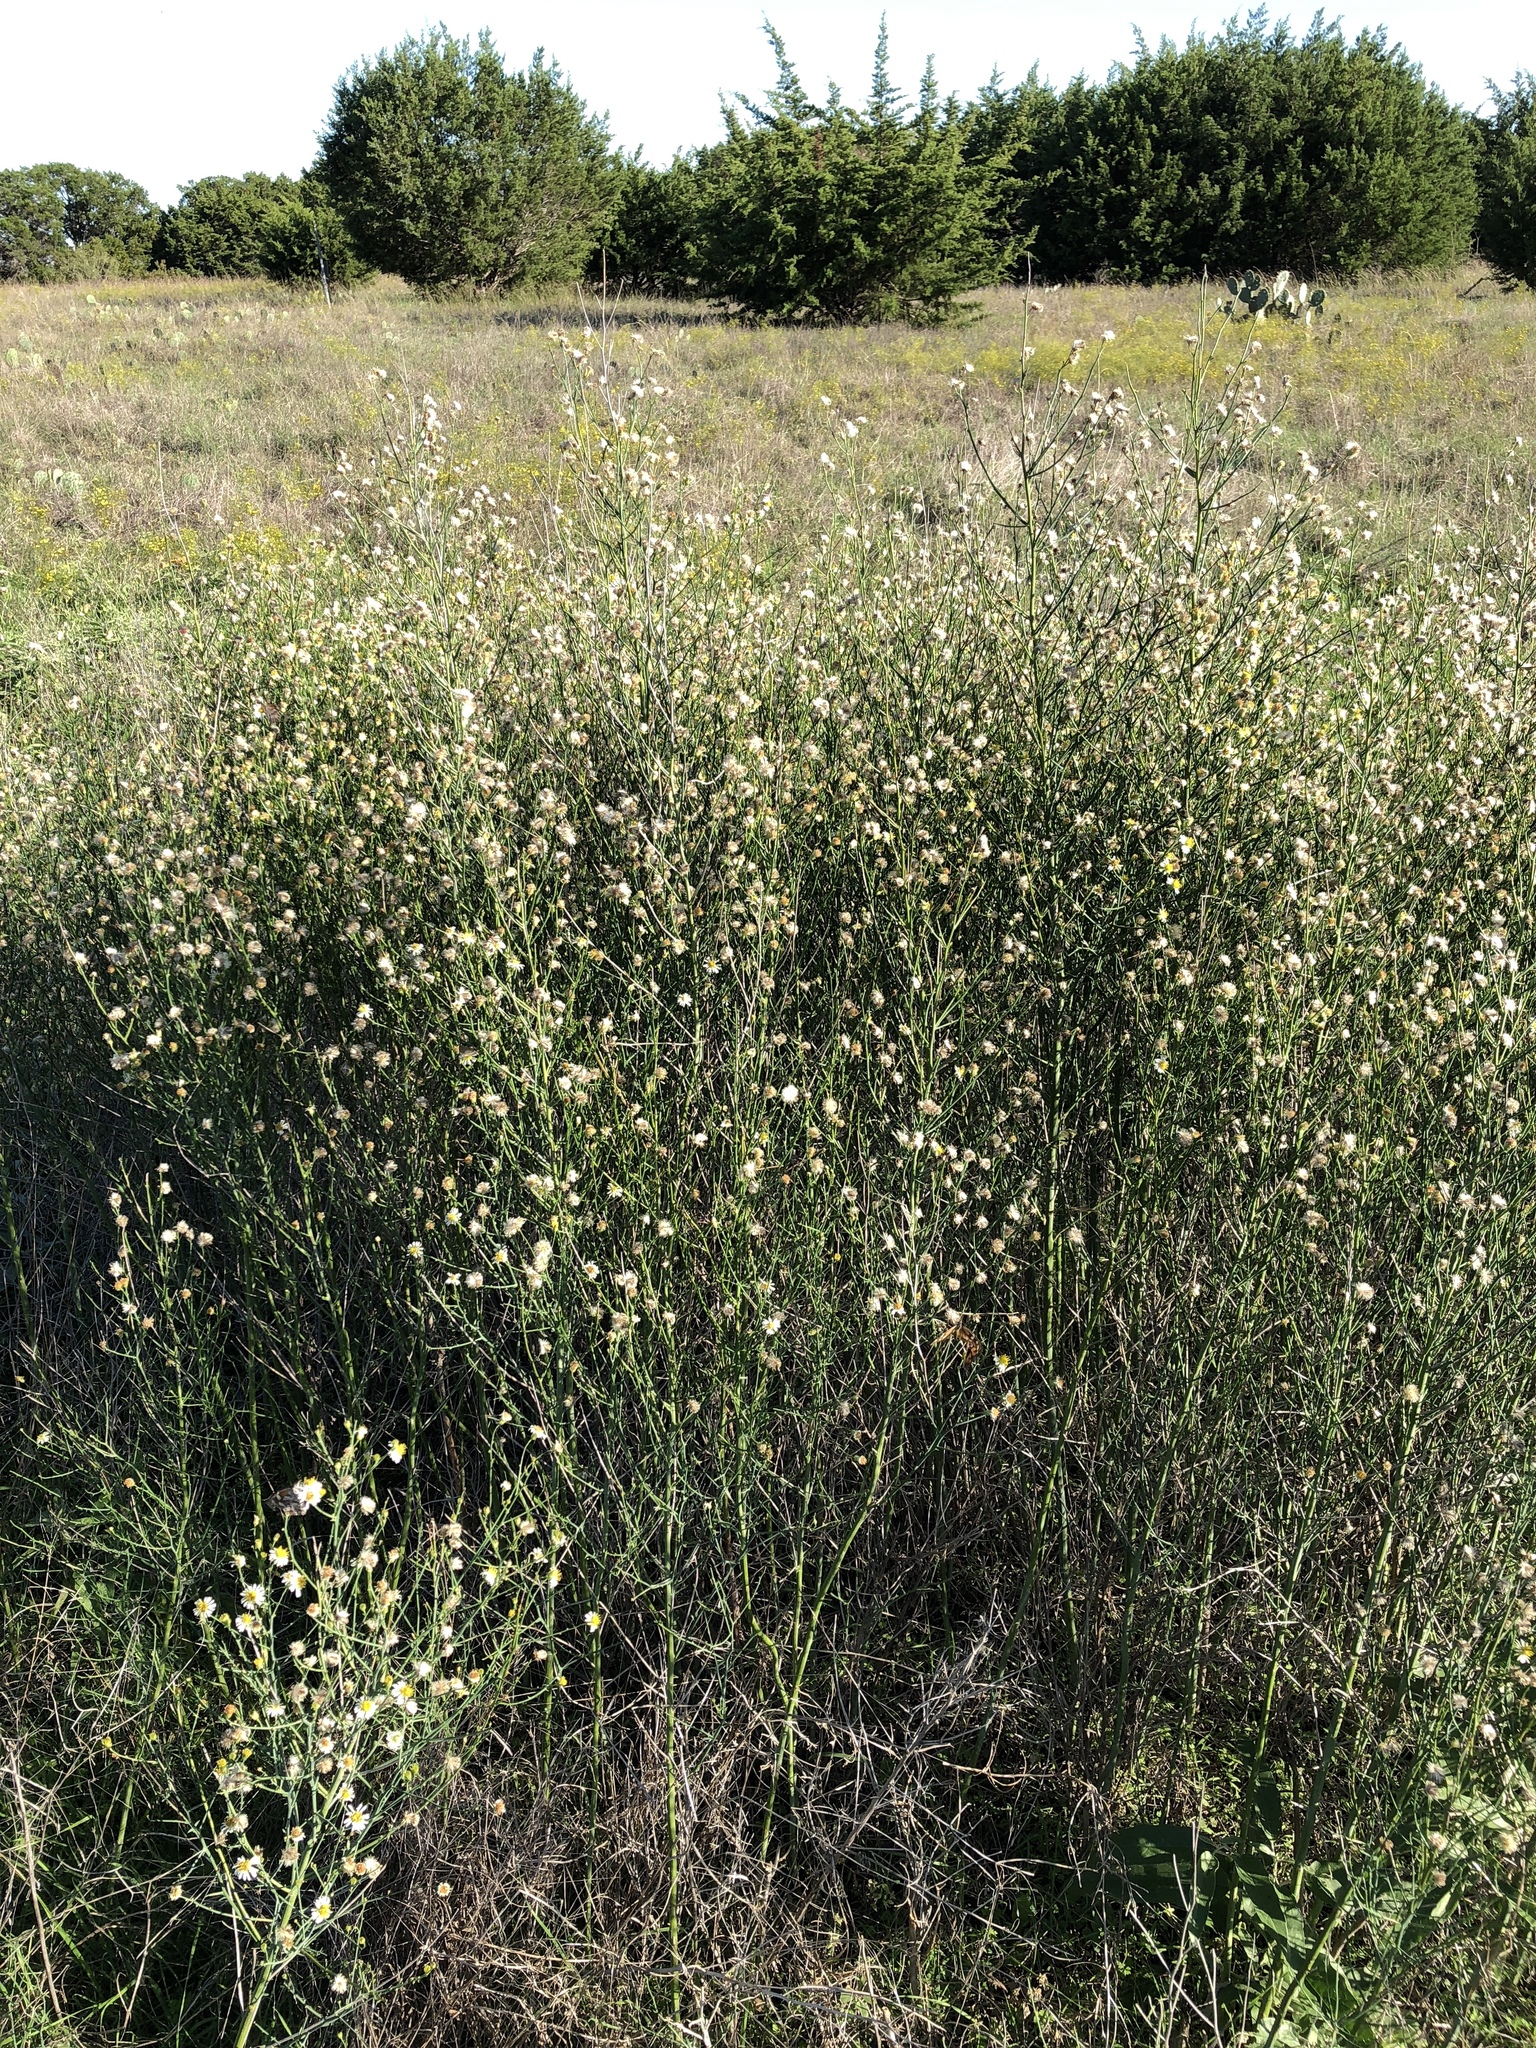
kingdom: Plantae
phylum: Tracheophyta
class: Magnoliopsida
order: Asterales
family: Asteraceae
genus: Chloracantha
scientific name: Chloracantha spinosa
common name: Mexican devilweed
